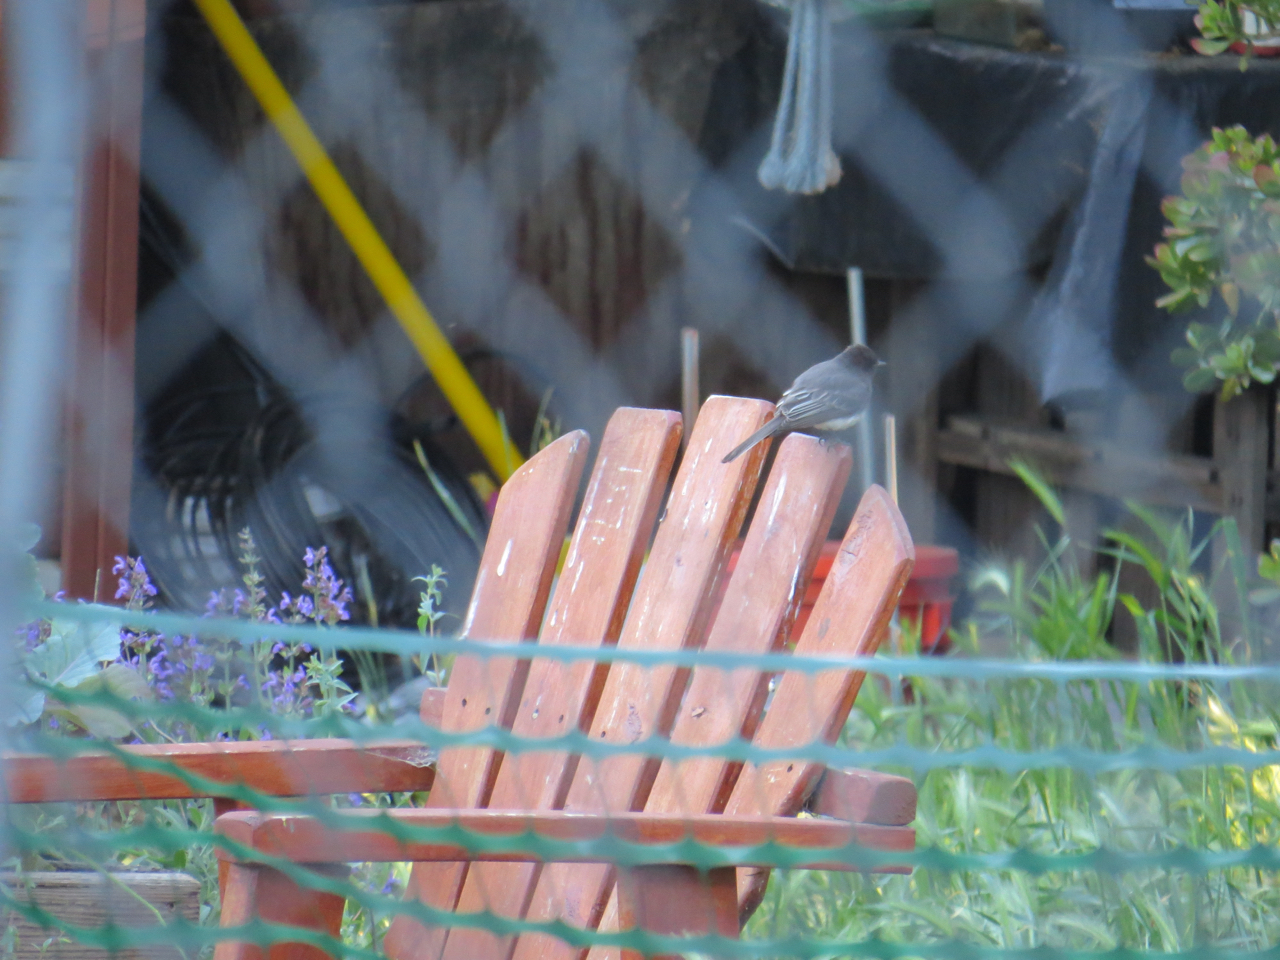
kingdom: Animalia
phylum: Chordata
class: Aves
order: Passeriformes
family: Tyrannidae
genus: Sayornis
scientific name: Sayornis nigricans
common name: Black phoebe
